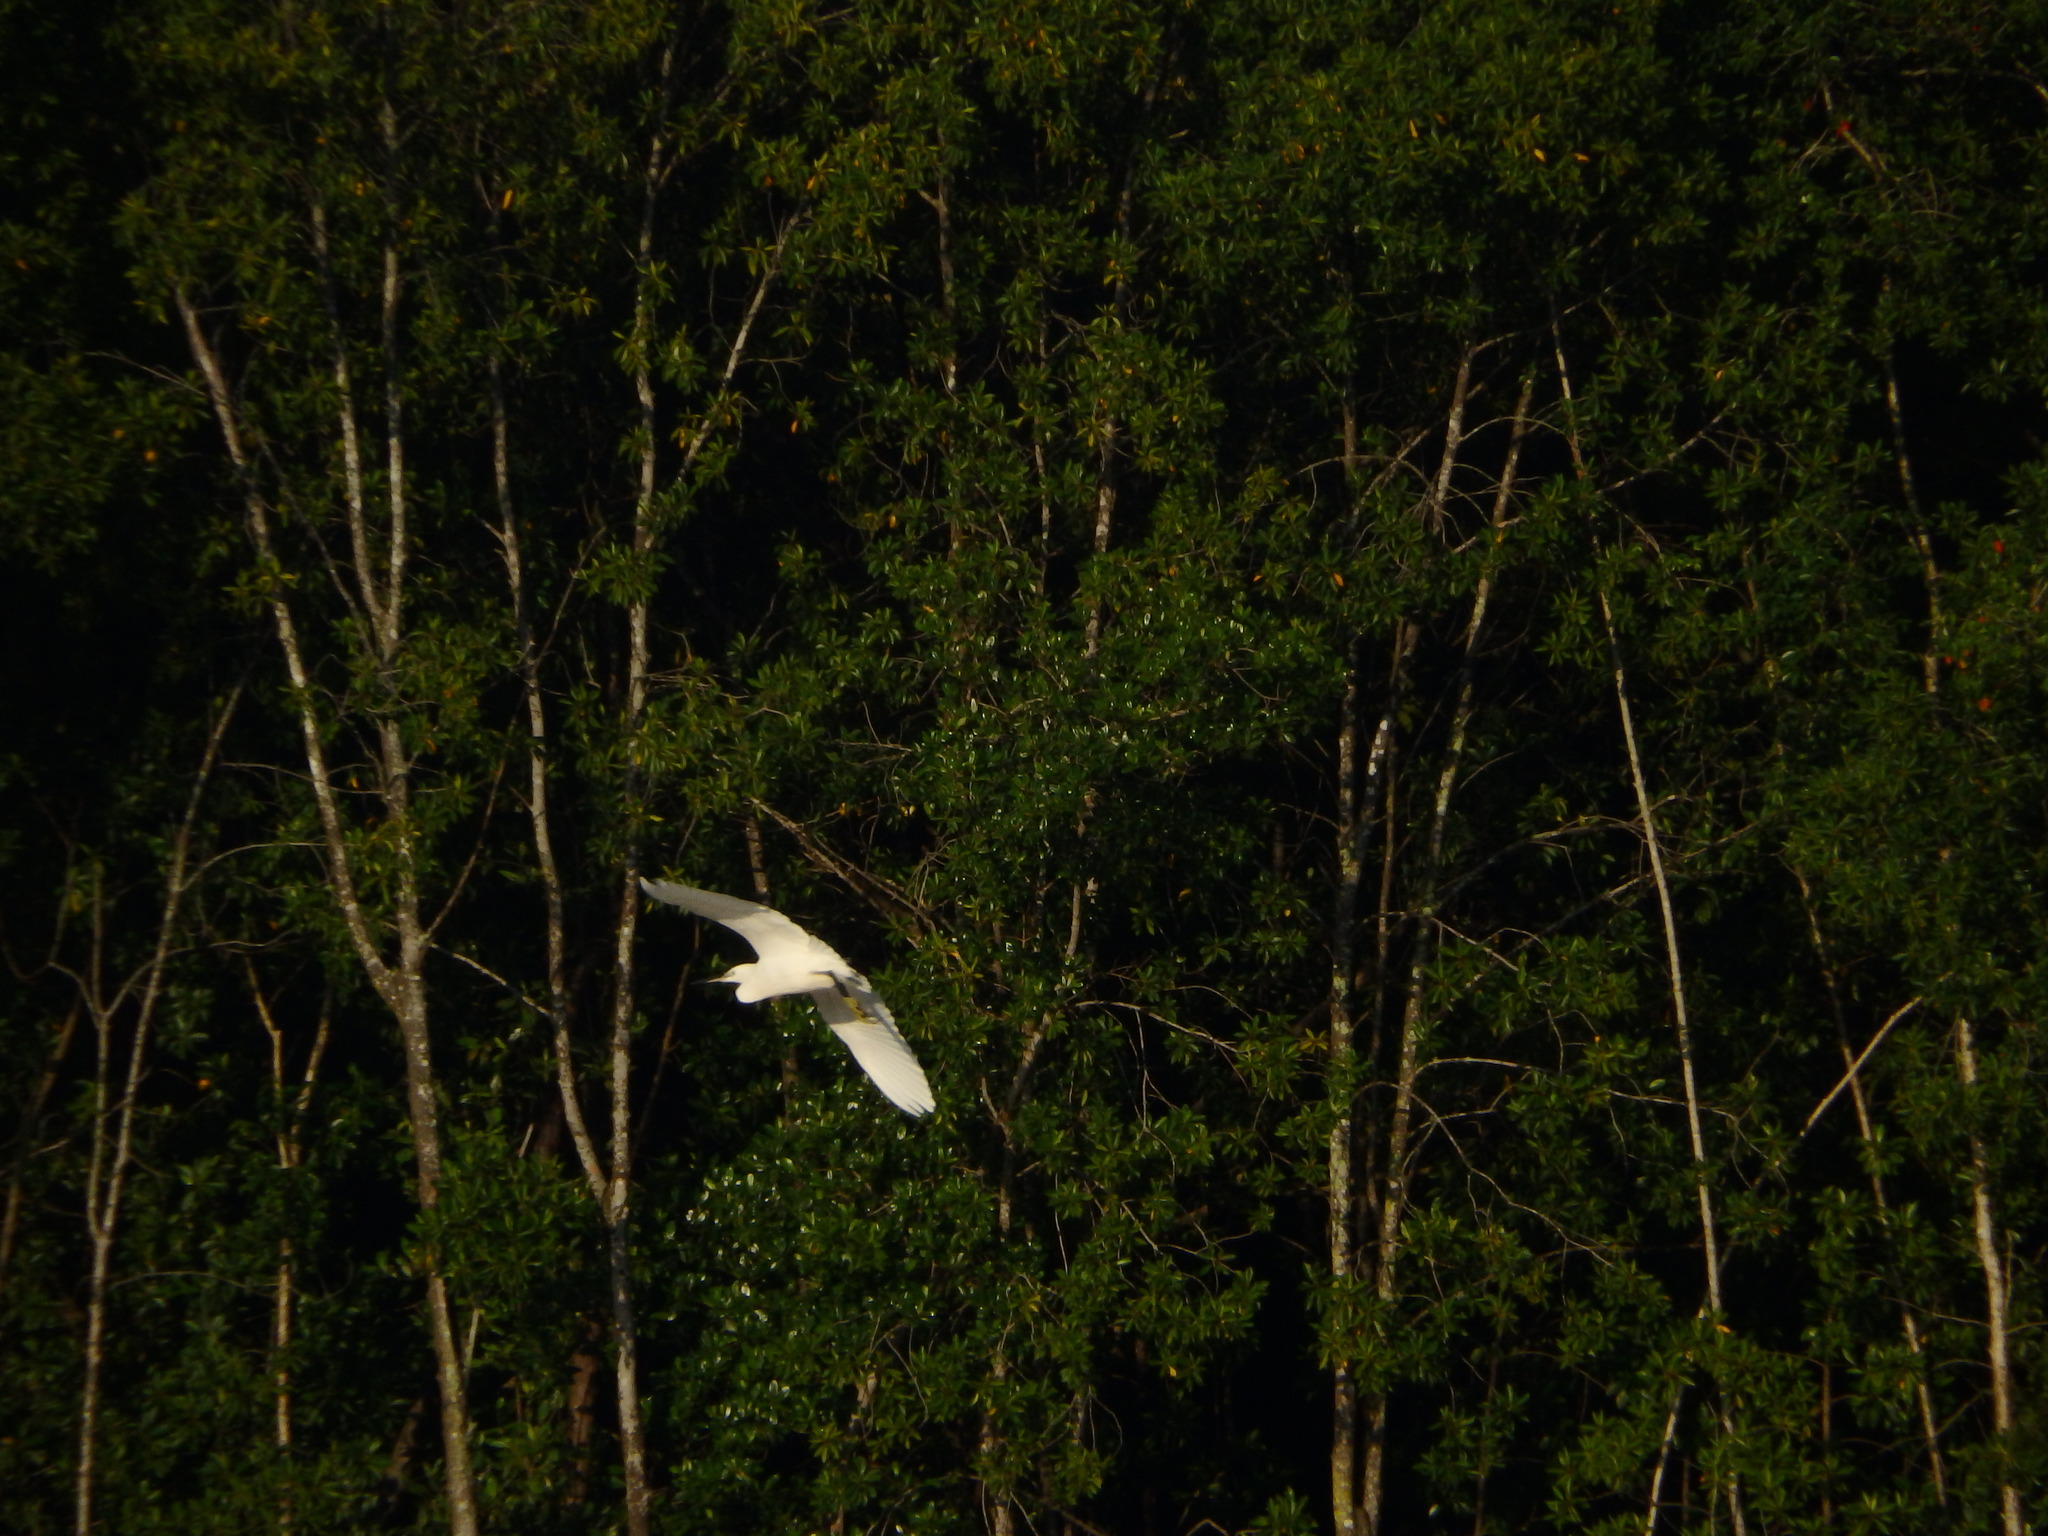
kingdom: Animalia
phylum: Chordata
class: Aves
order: Pelecaniformes
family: Ardeidae
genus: Egretta
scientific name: Egretta garzetta
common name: Little egret
